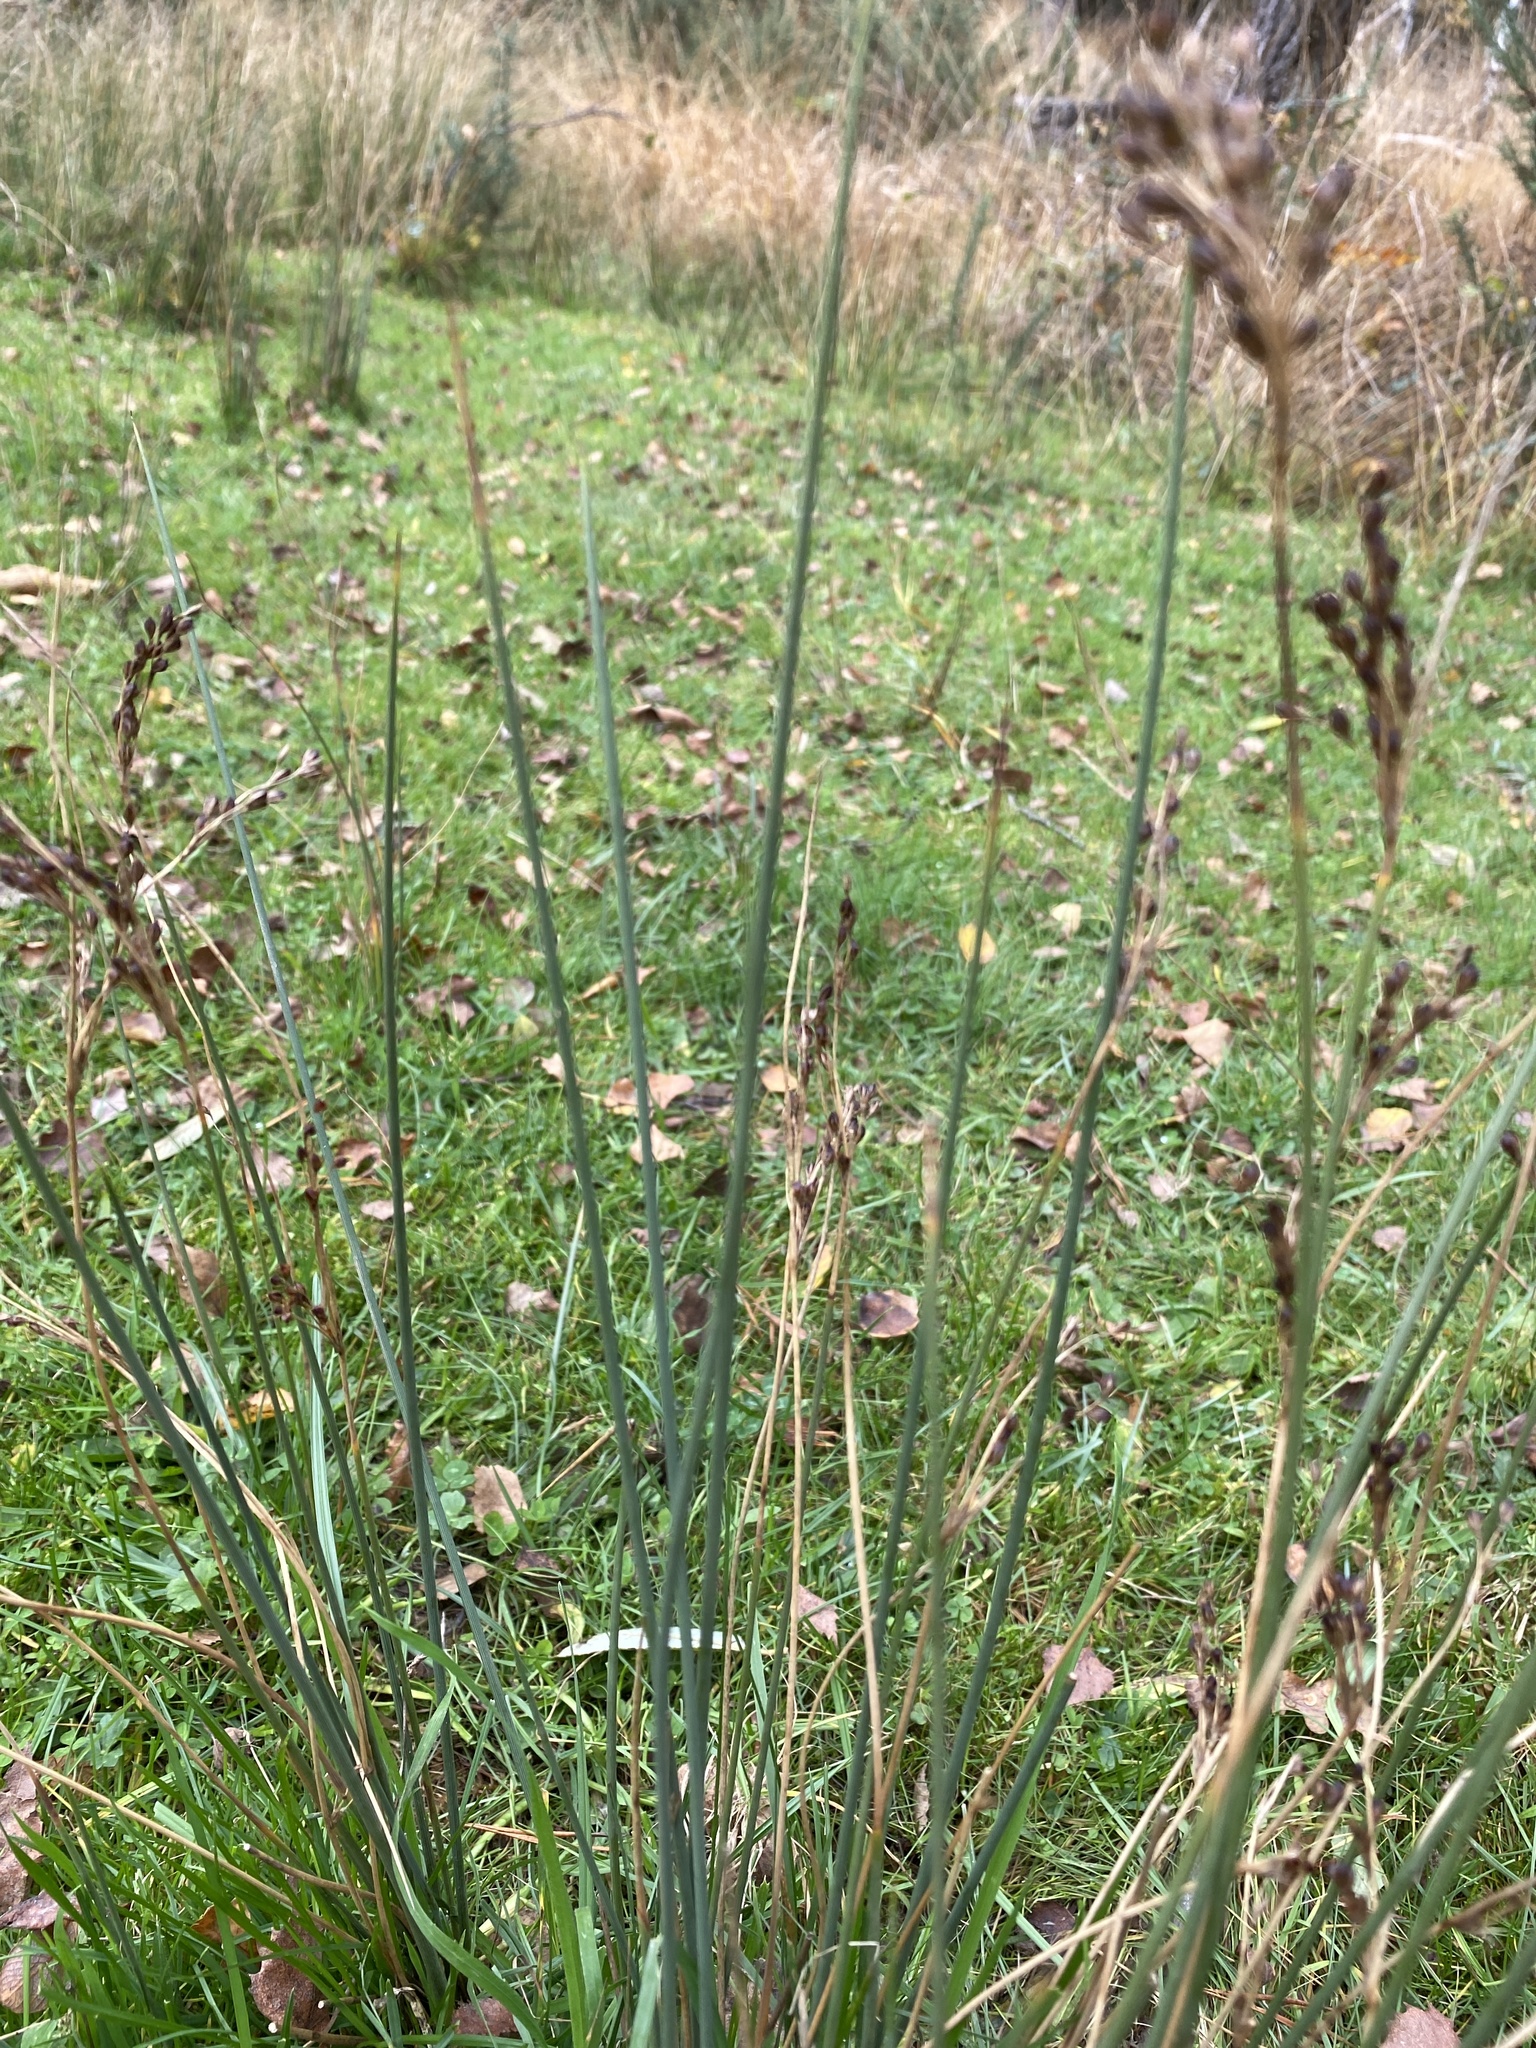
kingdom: Plantae
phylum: Tracheophyta
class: Liliopsida
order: Poales
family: Juncaceae
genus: Juncus
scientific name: Juncus inflexus
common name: Hard rush
